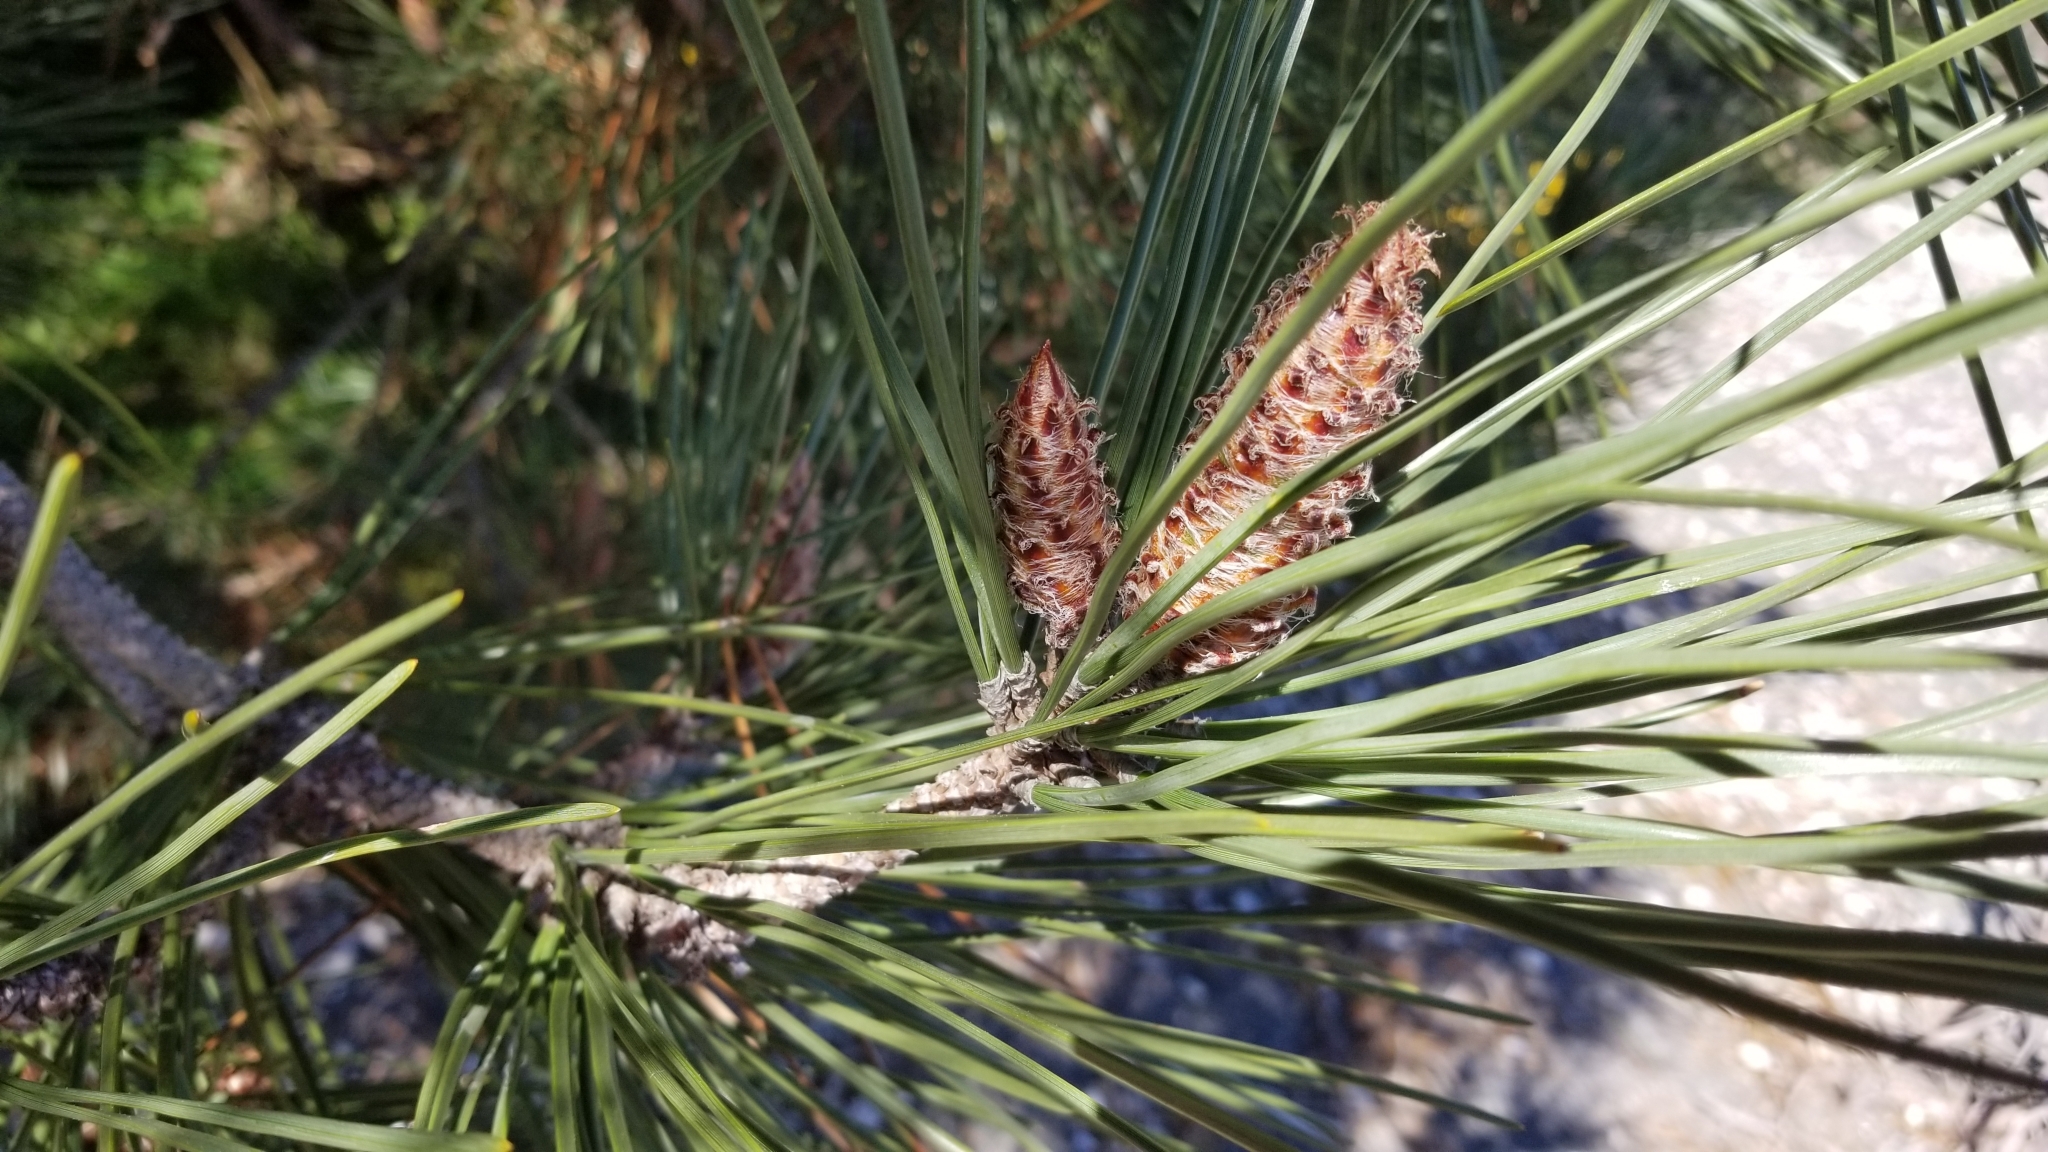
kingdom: Plantae
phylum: Tracheophyta
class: Pinopsida
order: Pinales
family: Pinaceae
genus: Pinus
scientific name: Pinus pinaster
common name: Maritime pine
